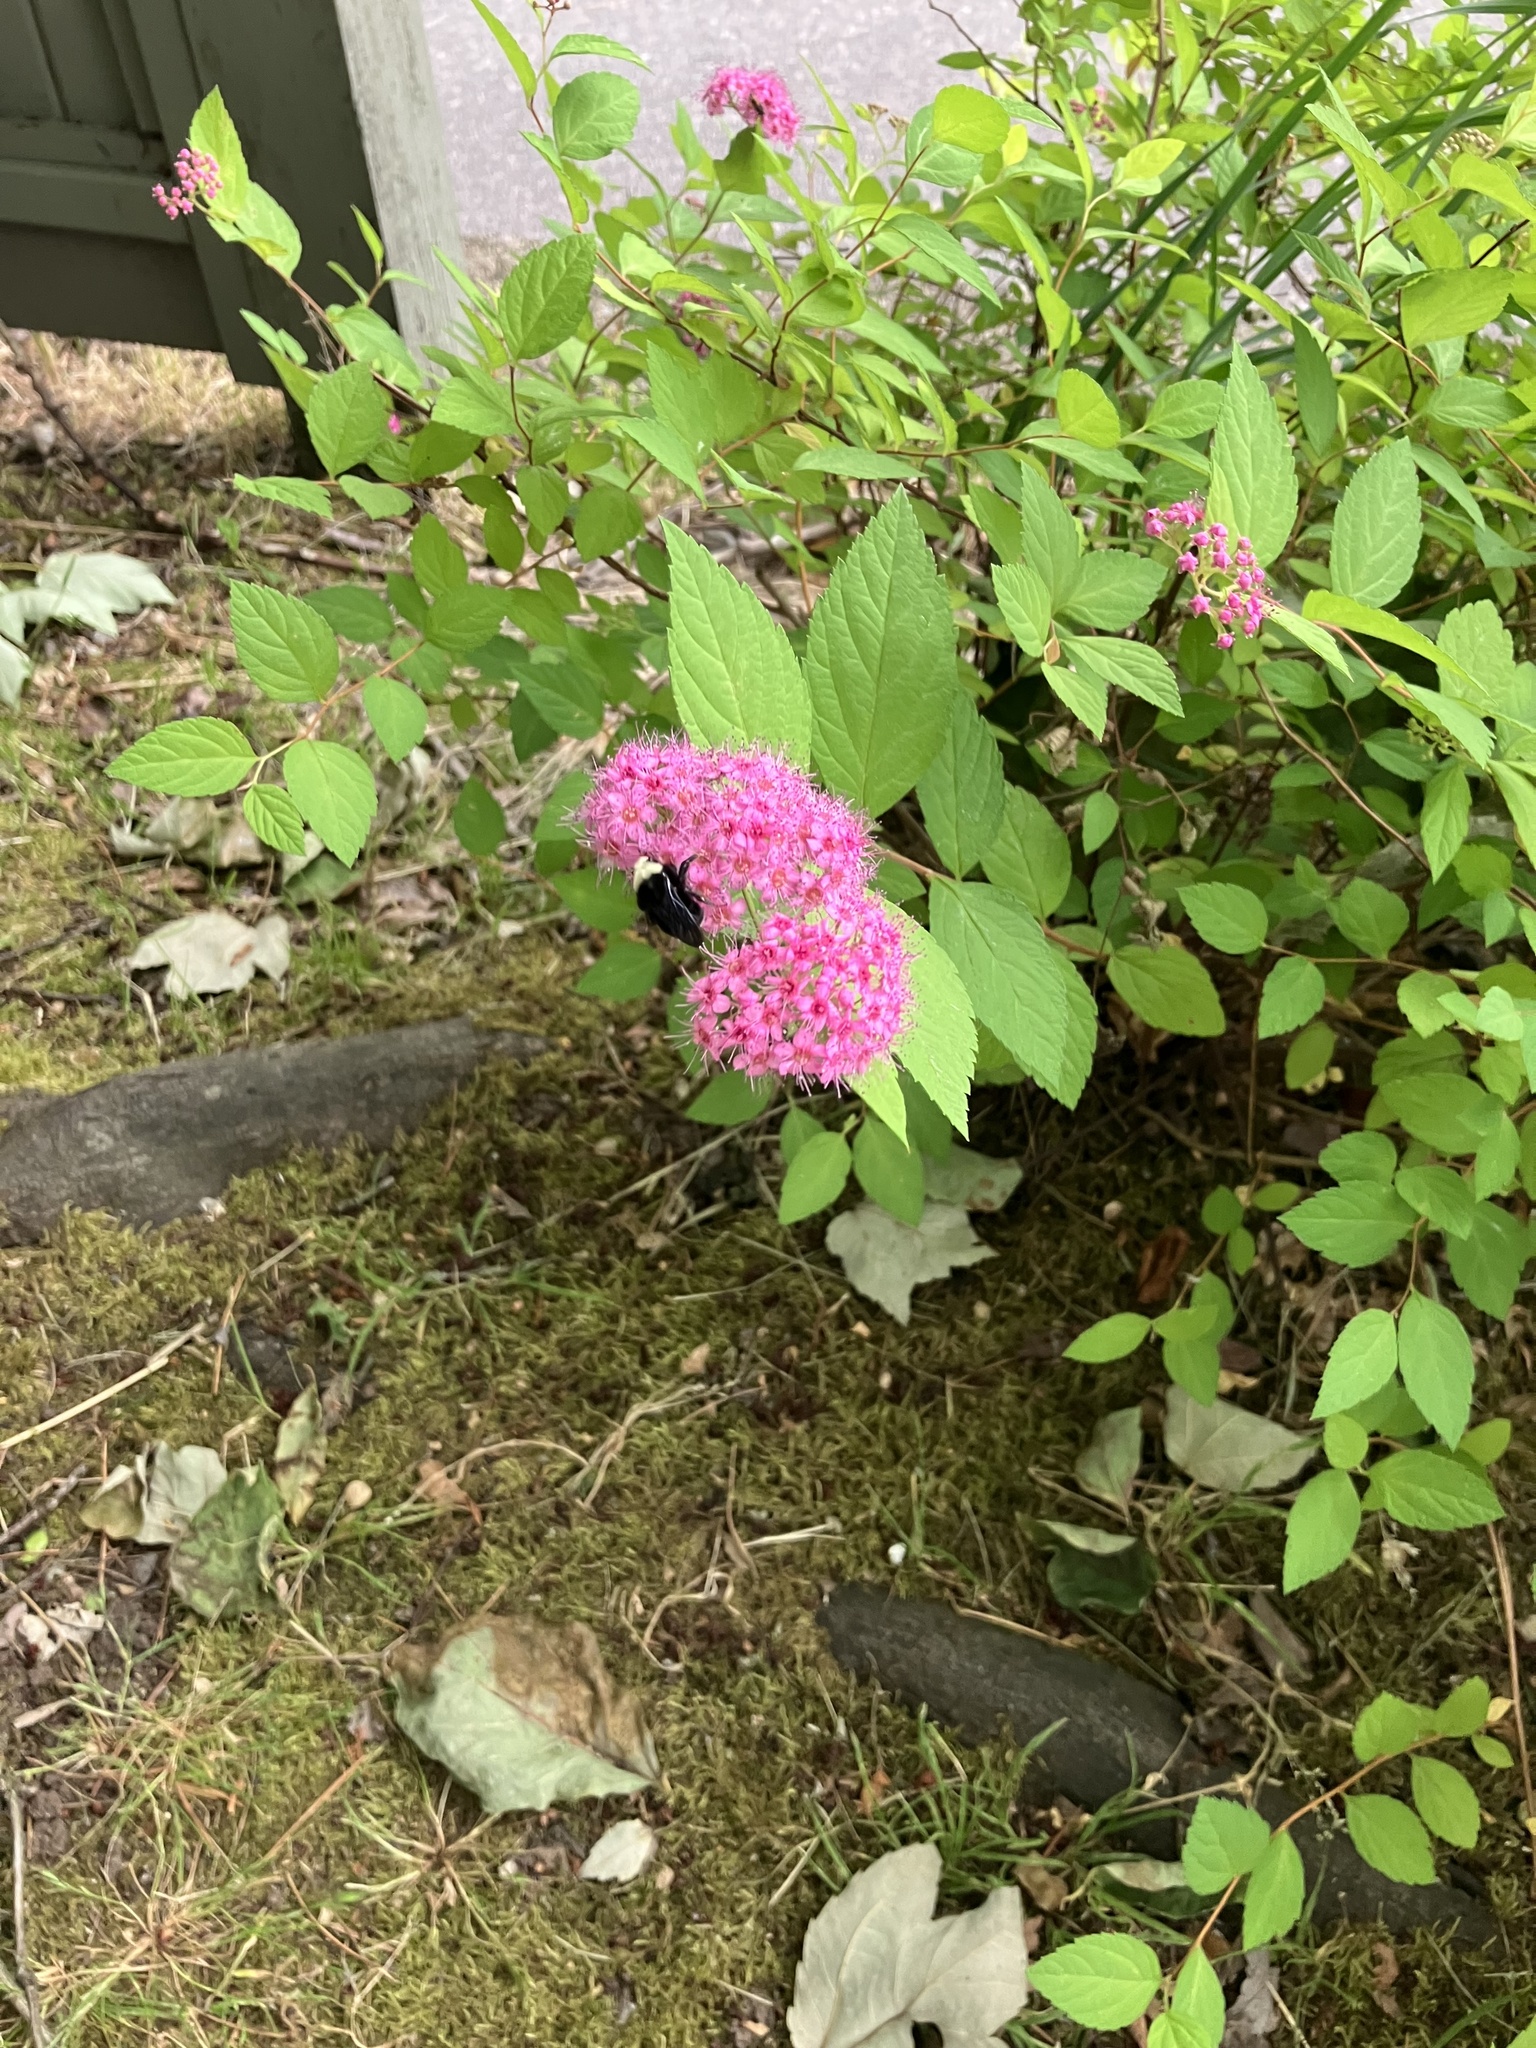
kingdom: Animalia
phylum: Arthropoda
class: Insecta
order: Hymenoptera
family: Apidae
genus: Bombus
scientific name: Bombus vosnesenskii
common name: Vosnesensky bumble bee
